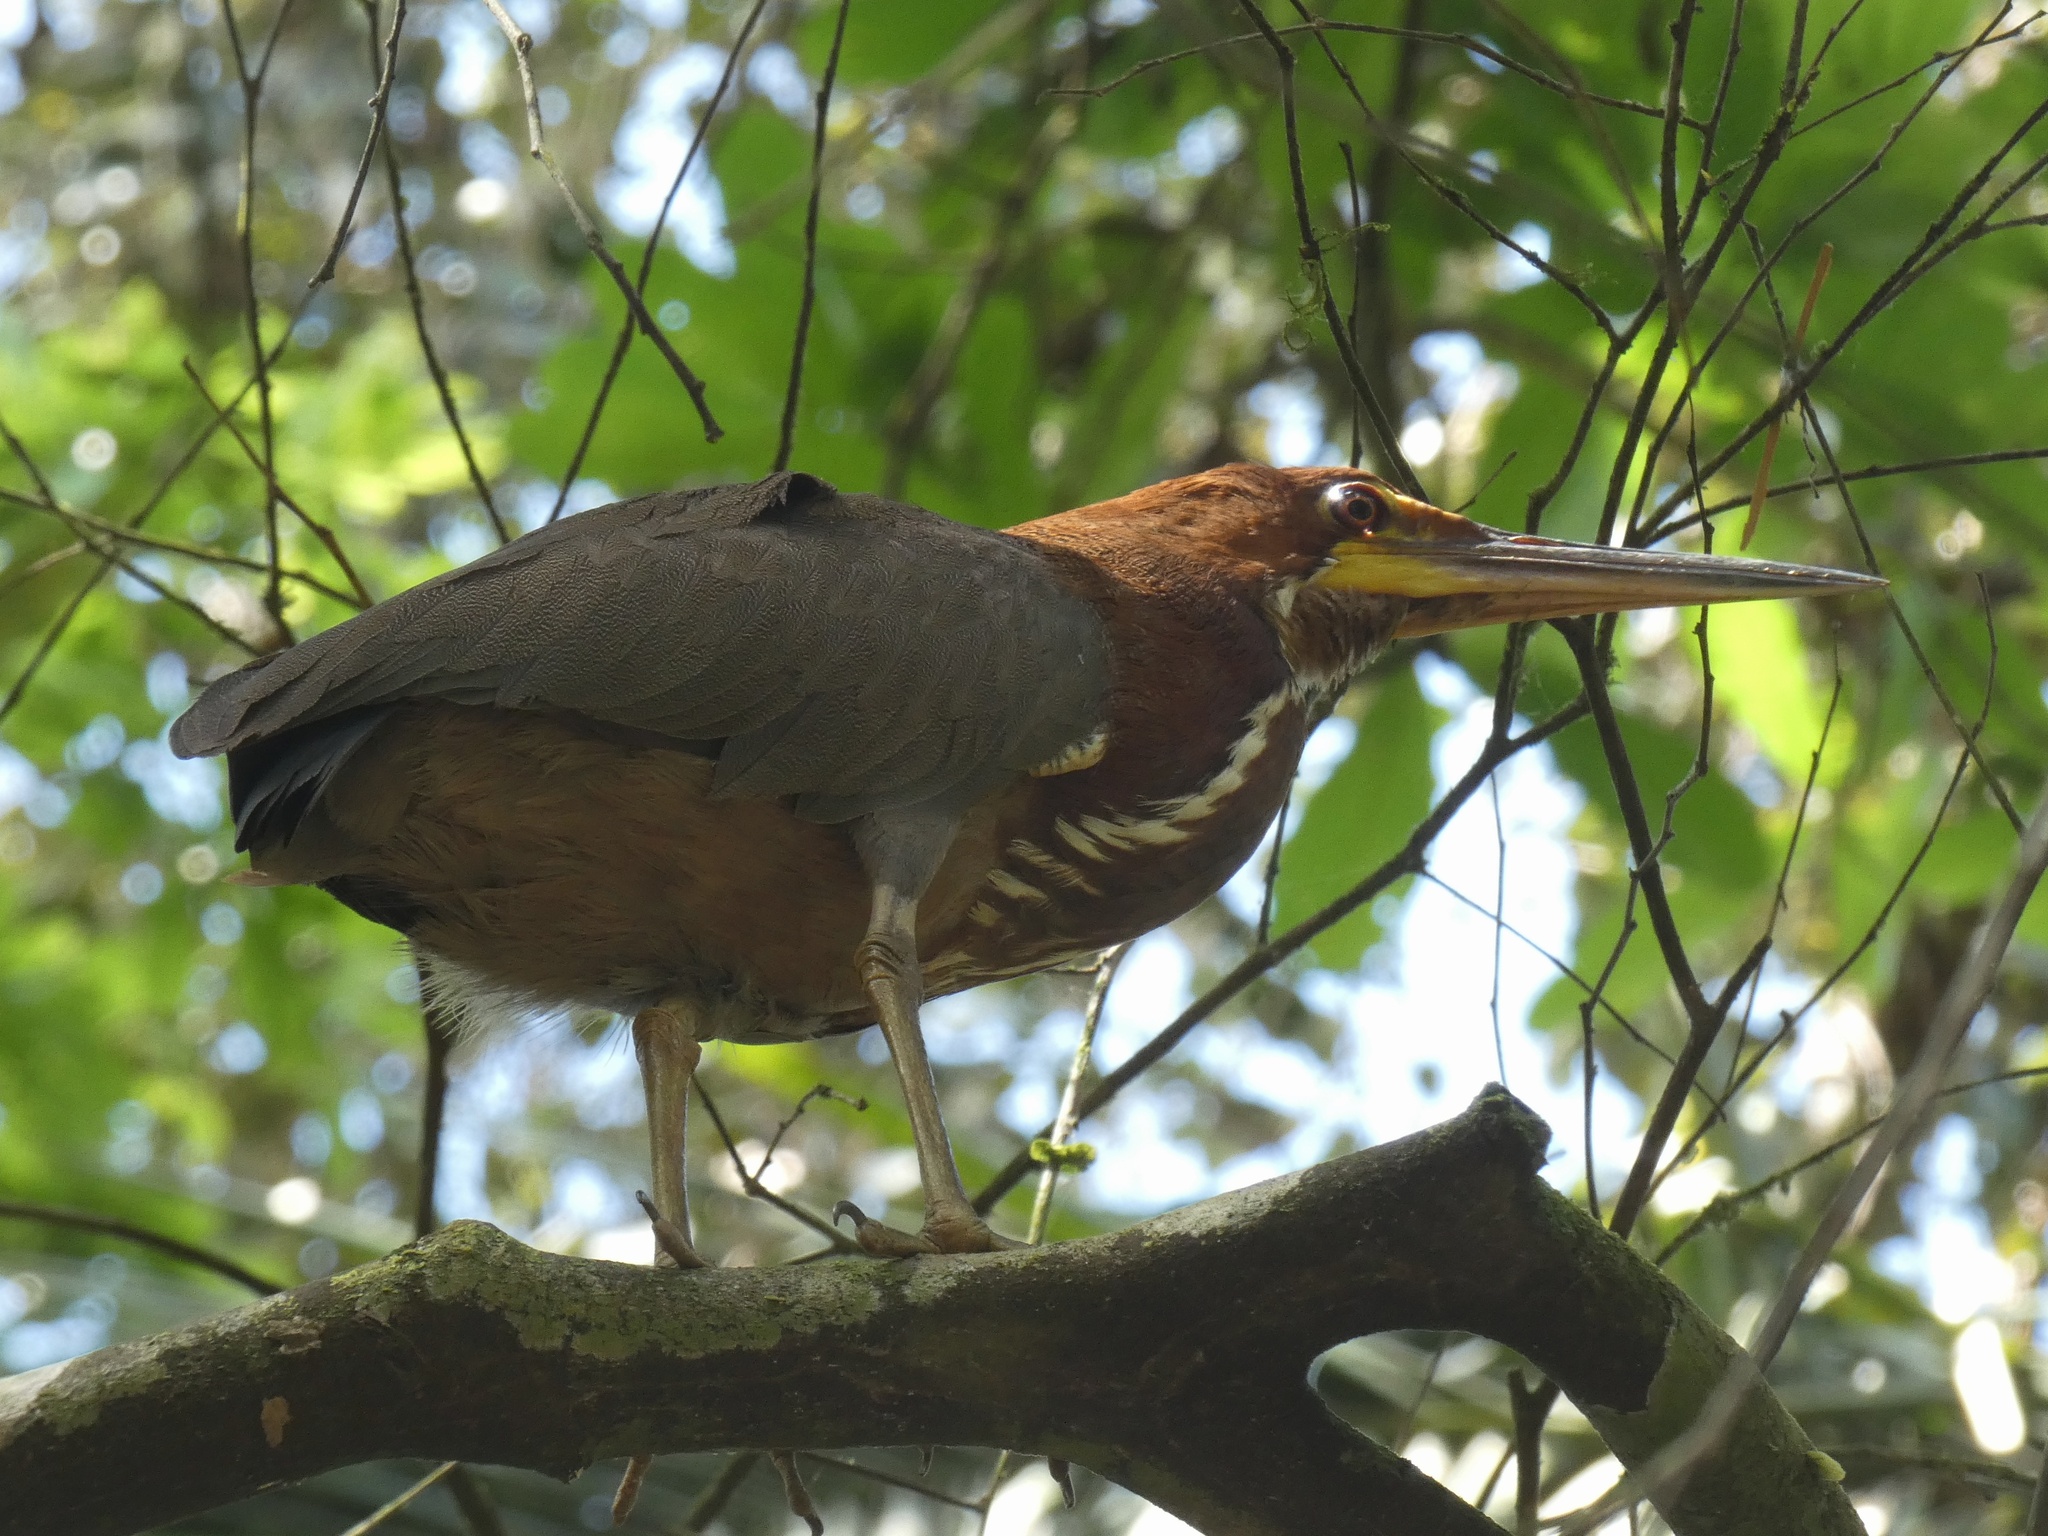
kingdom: Animalia
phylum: Chordata
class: Aves
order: Pelecaniformes
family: Ardeidae
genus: Tigrisoma
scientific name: Tigrisoma lineatum
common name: Rufescent tiger-heron
